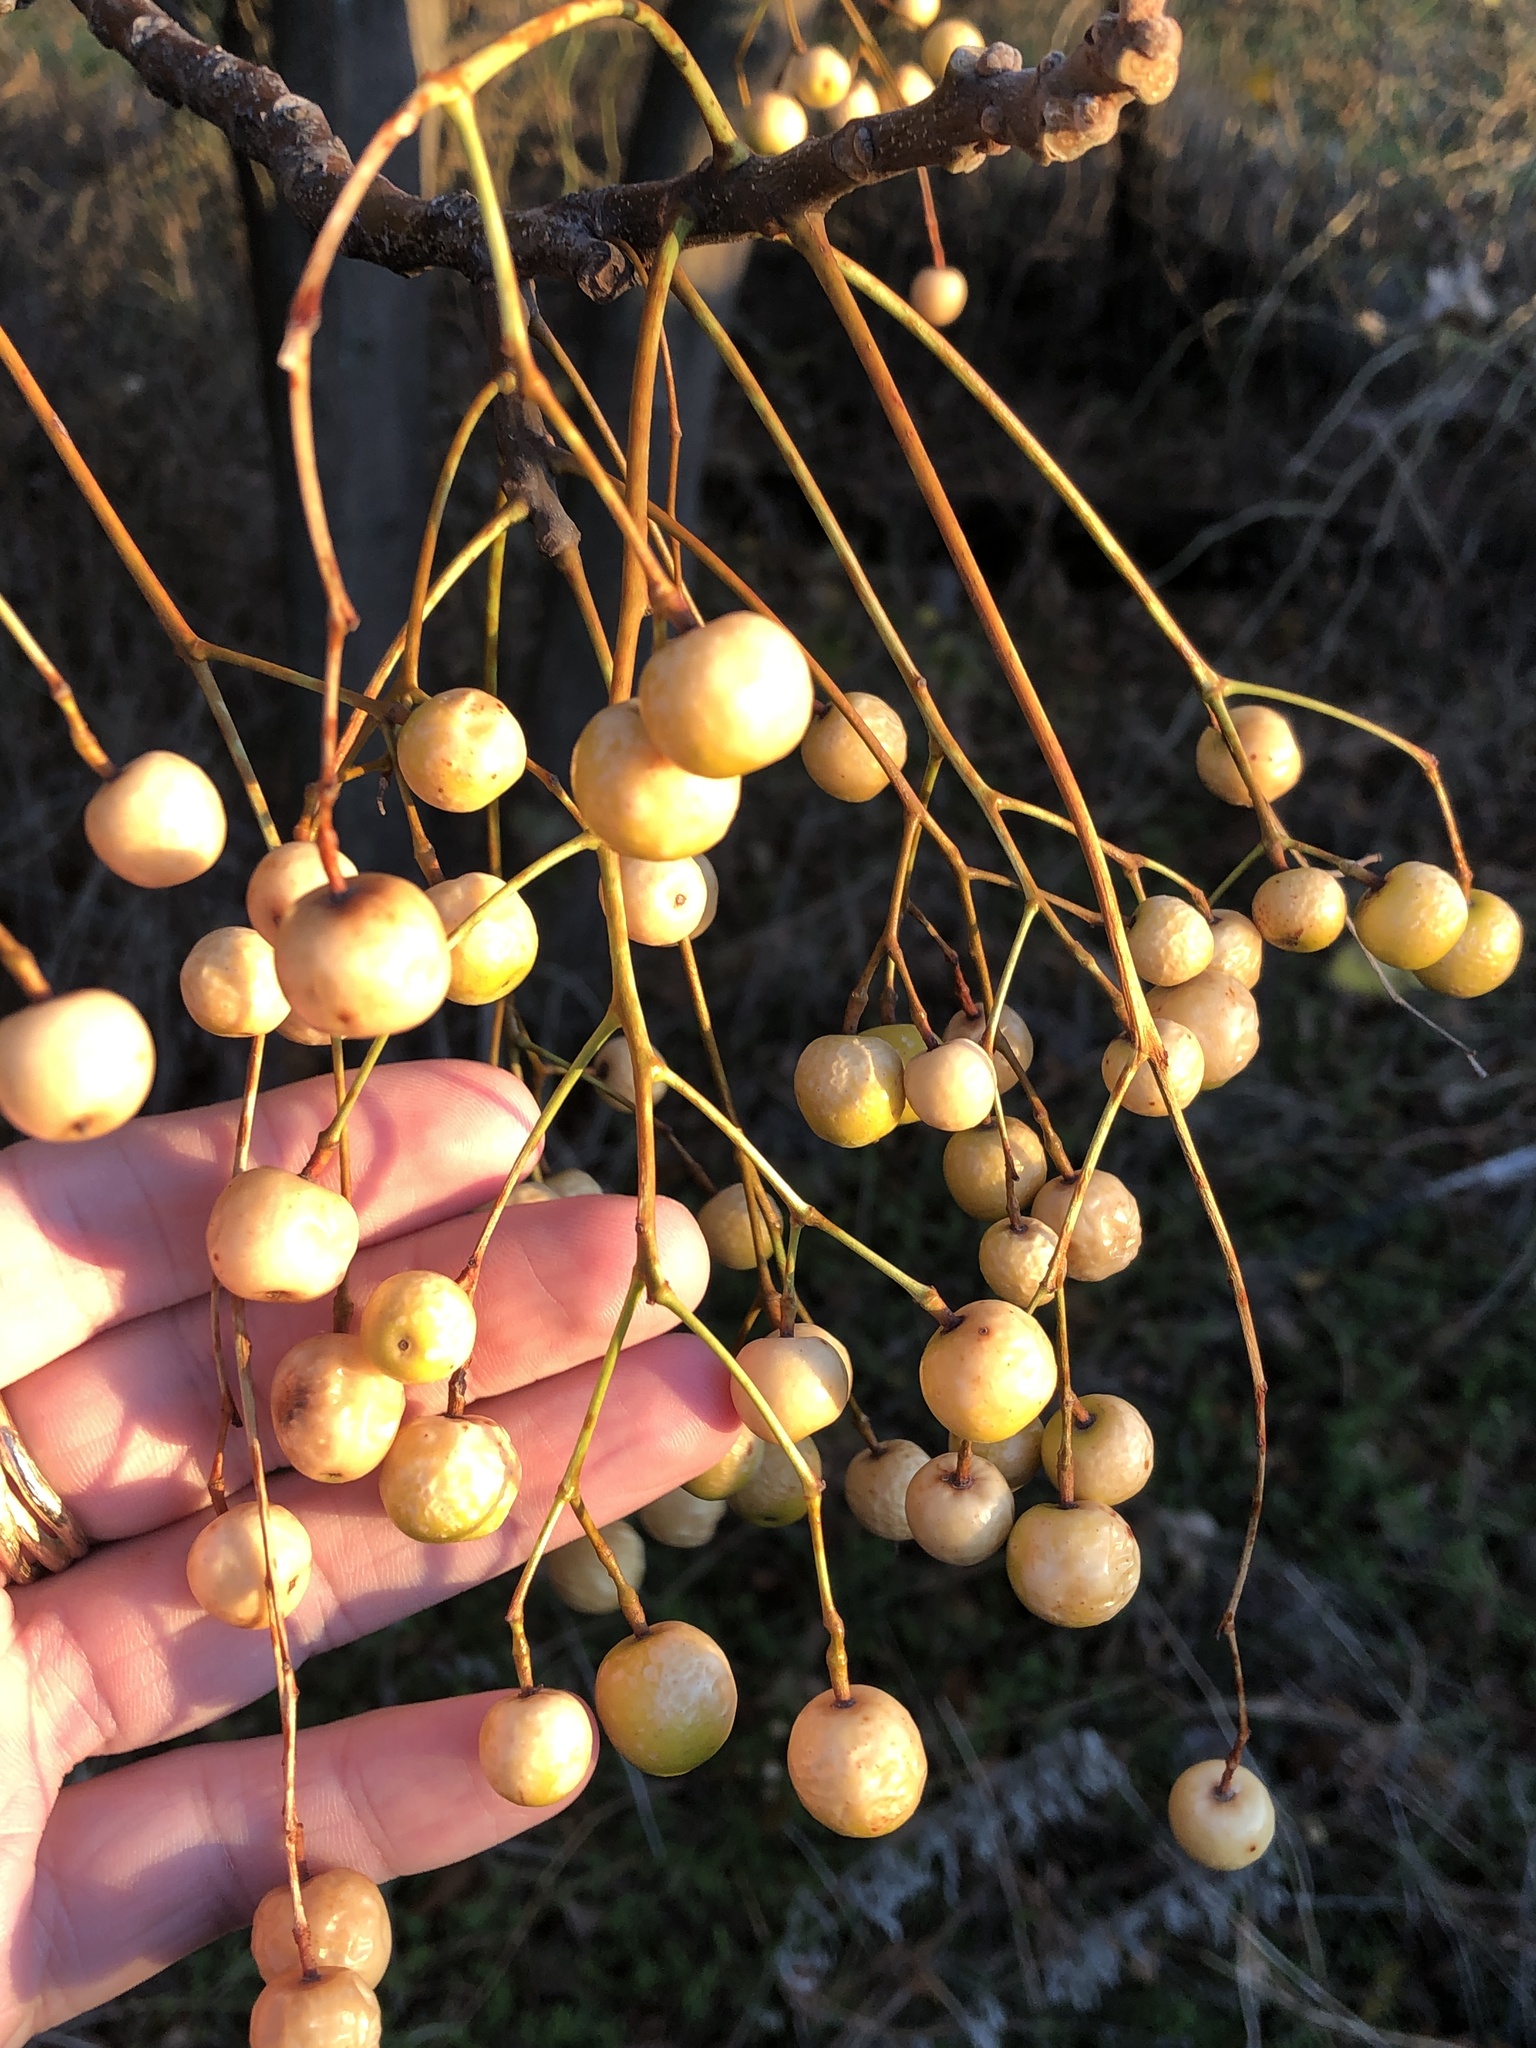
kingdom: Plantae
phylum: Tracheophyta
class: Magnoliopsida
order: Sapindales
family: Meliaceae
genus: Melia
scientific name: Melia azedarach
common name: Chinaberrytree
